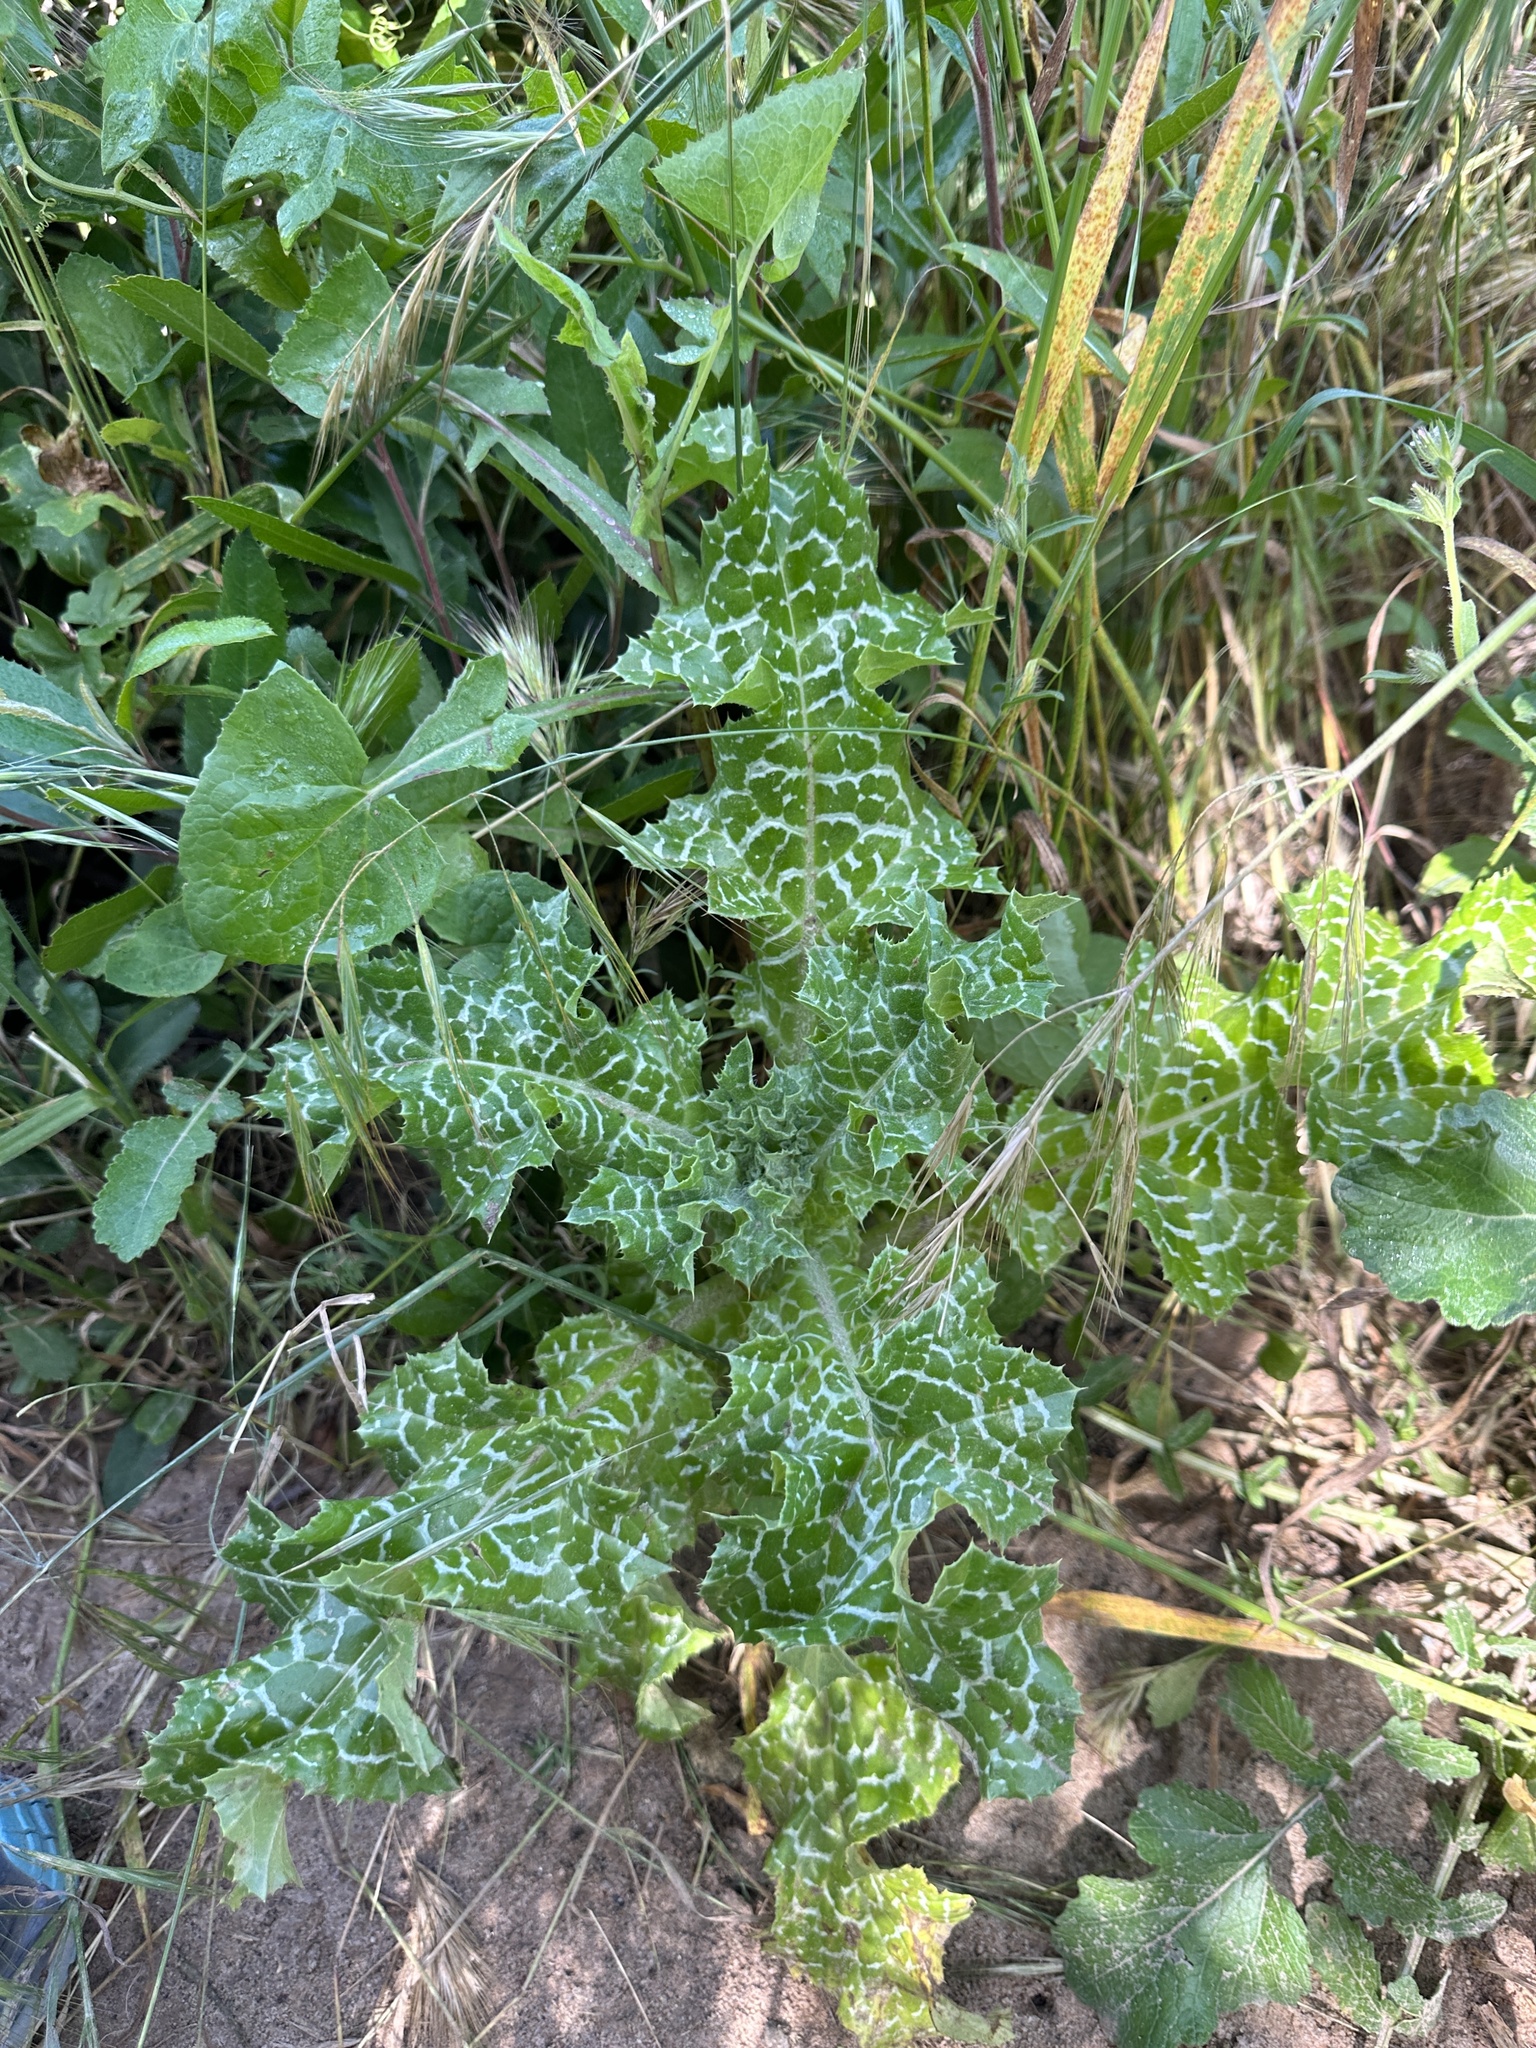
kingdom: Plantae
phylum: Tracheophyta
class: Magnoliopsida
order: Asterales
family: Asteraceae
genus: Silybum
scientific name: Silybum marianum
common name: Milk thistle
